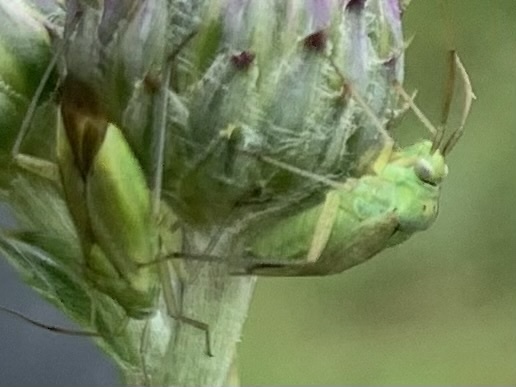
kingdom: Animalia
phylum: Arthropoda
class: Insecta
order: Hemiptera
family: Miridae
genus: Closterotomus
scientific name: Closterotomus norvegicus
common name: Plant bug
